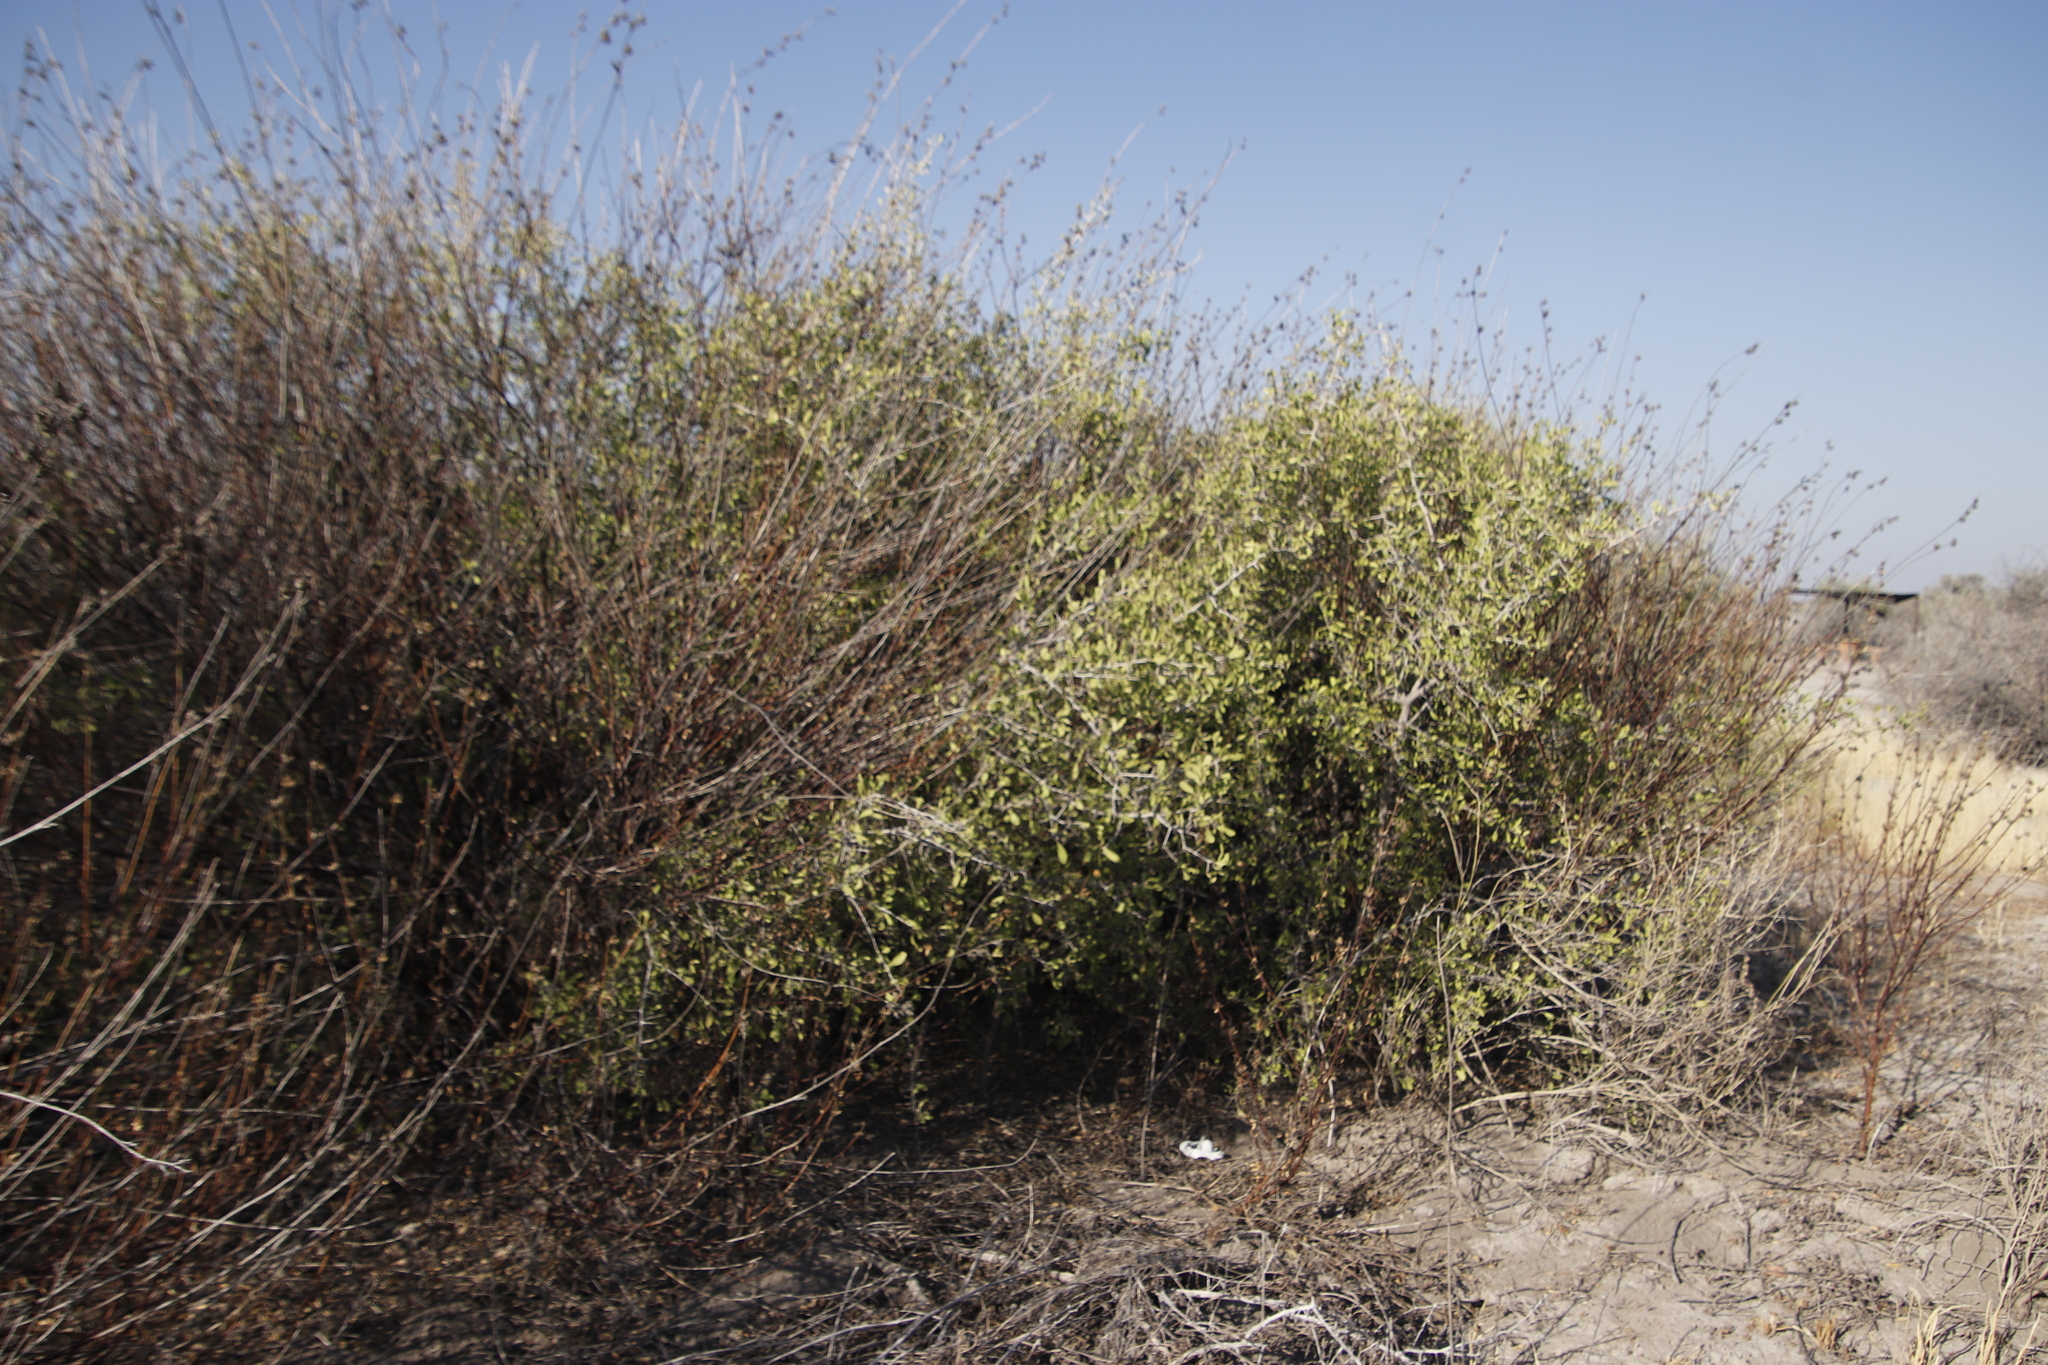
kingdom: Plantae
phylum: Tracheophyta
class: Magnoliopsida
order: Celastrales
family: Celastraceae
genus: Gymnosporia
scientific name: Gymnosporia senegalensis
